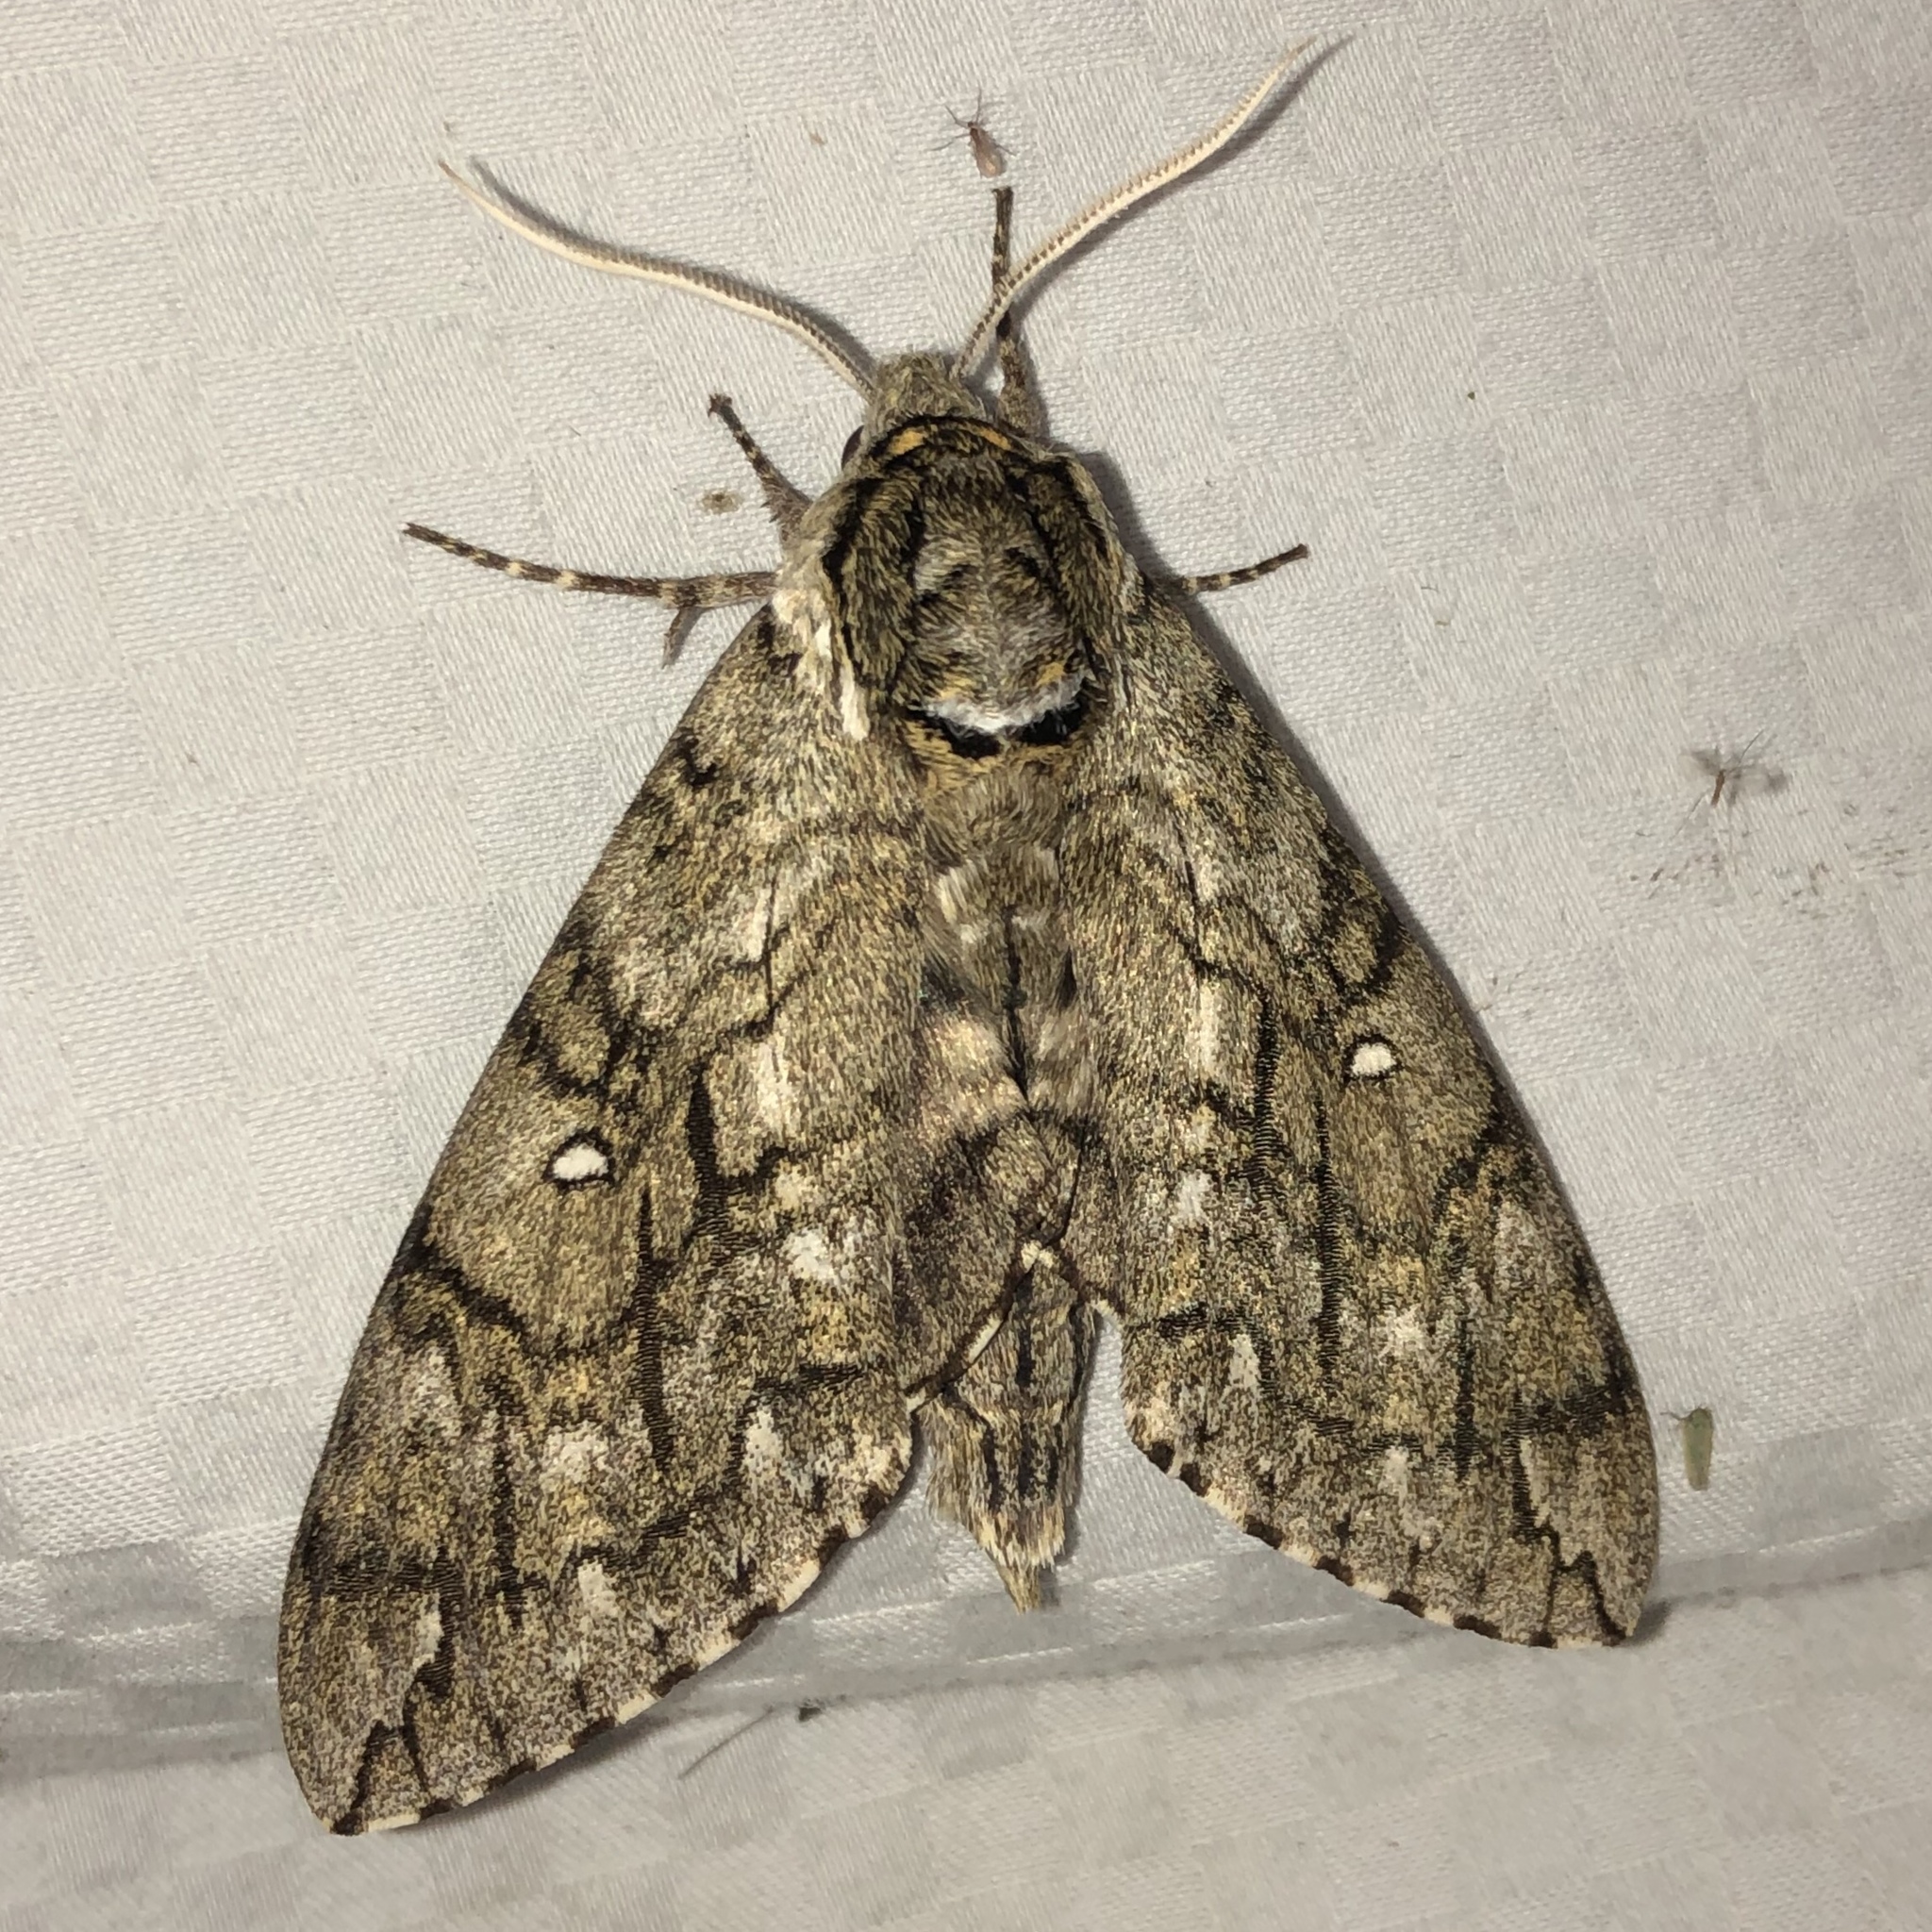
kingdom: Animalia
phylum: Arthropoda
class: Insecta
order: Lepidoptera
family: Sphingidae
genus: Ceratomia
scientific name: Ceratomia undulosa
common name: Waved sphinx
